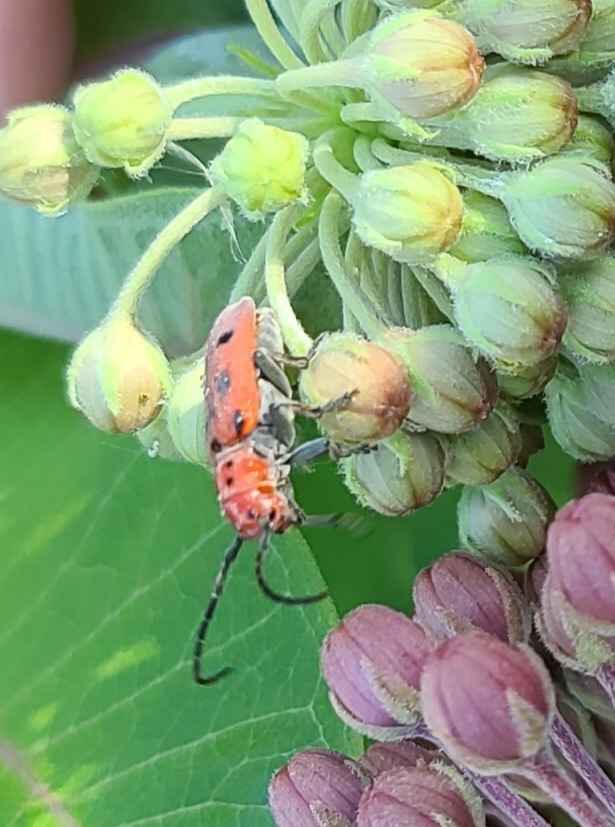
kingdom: Animalia
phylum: Arthropoda
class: Insecta
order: Coleoptera
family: Cerambycidae
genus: Tetraopes
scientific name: Tetraopes tetrophthalmus
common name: Red milkweed beetle
